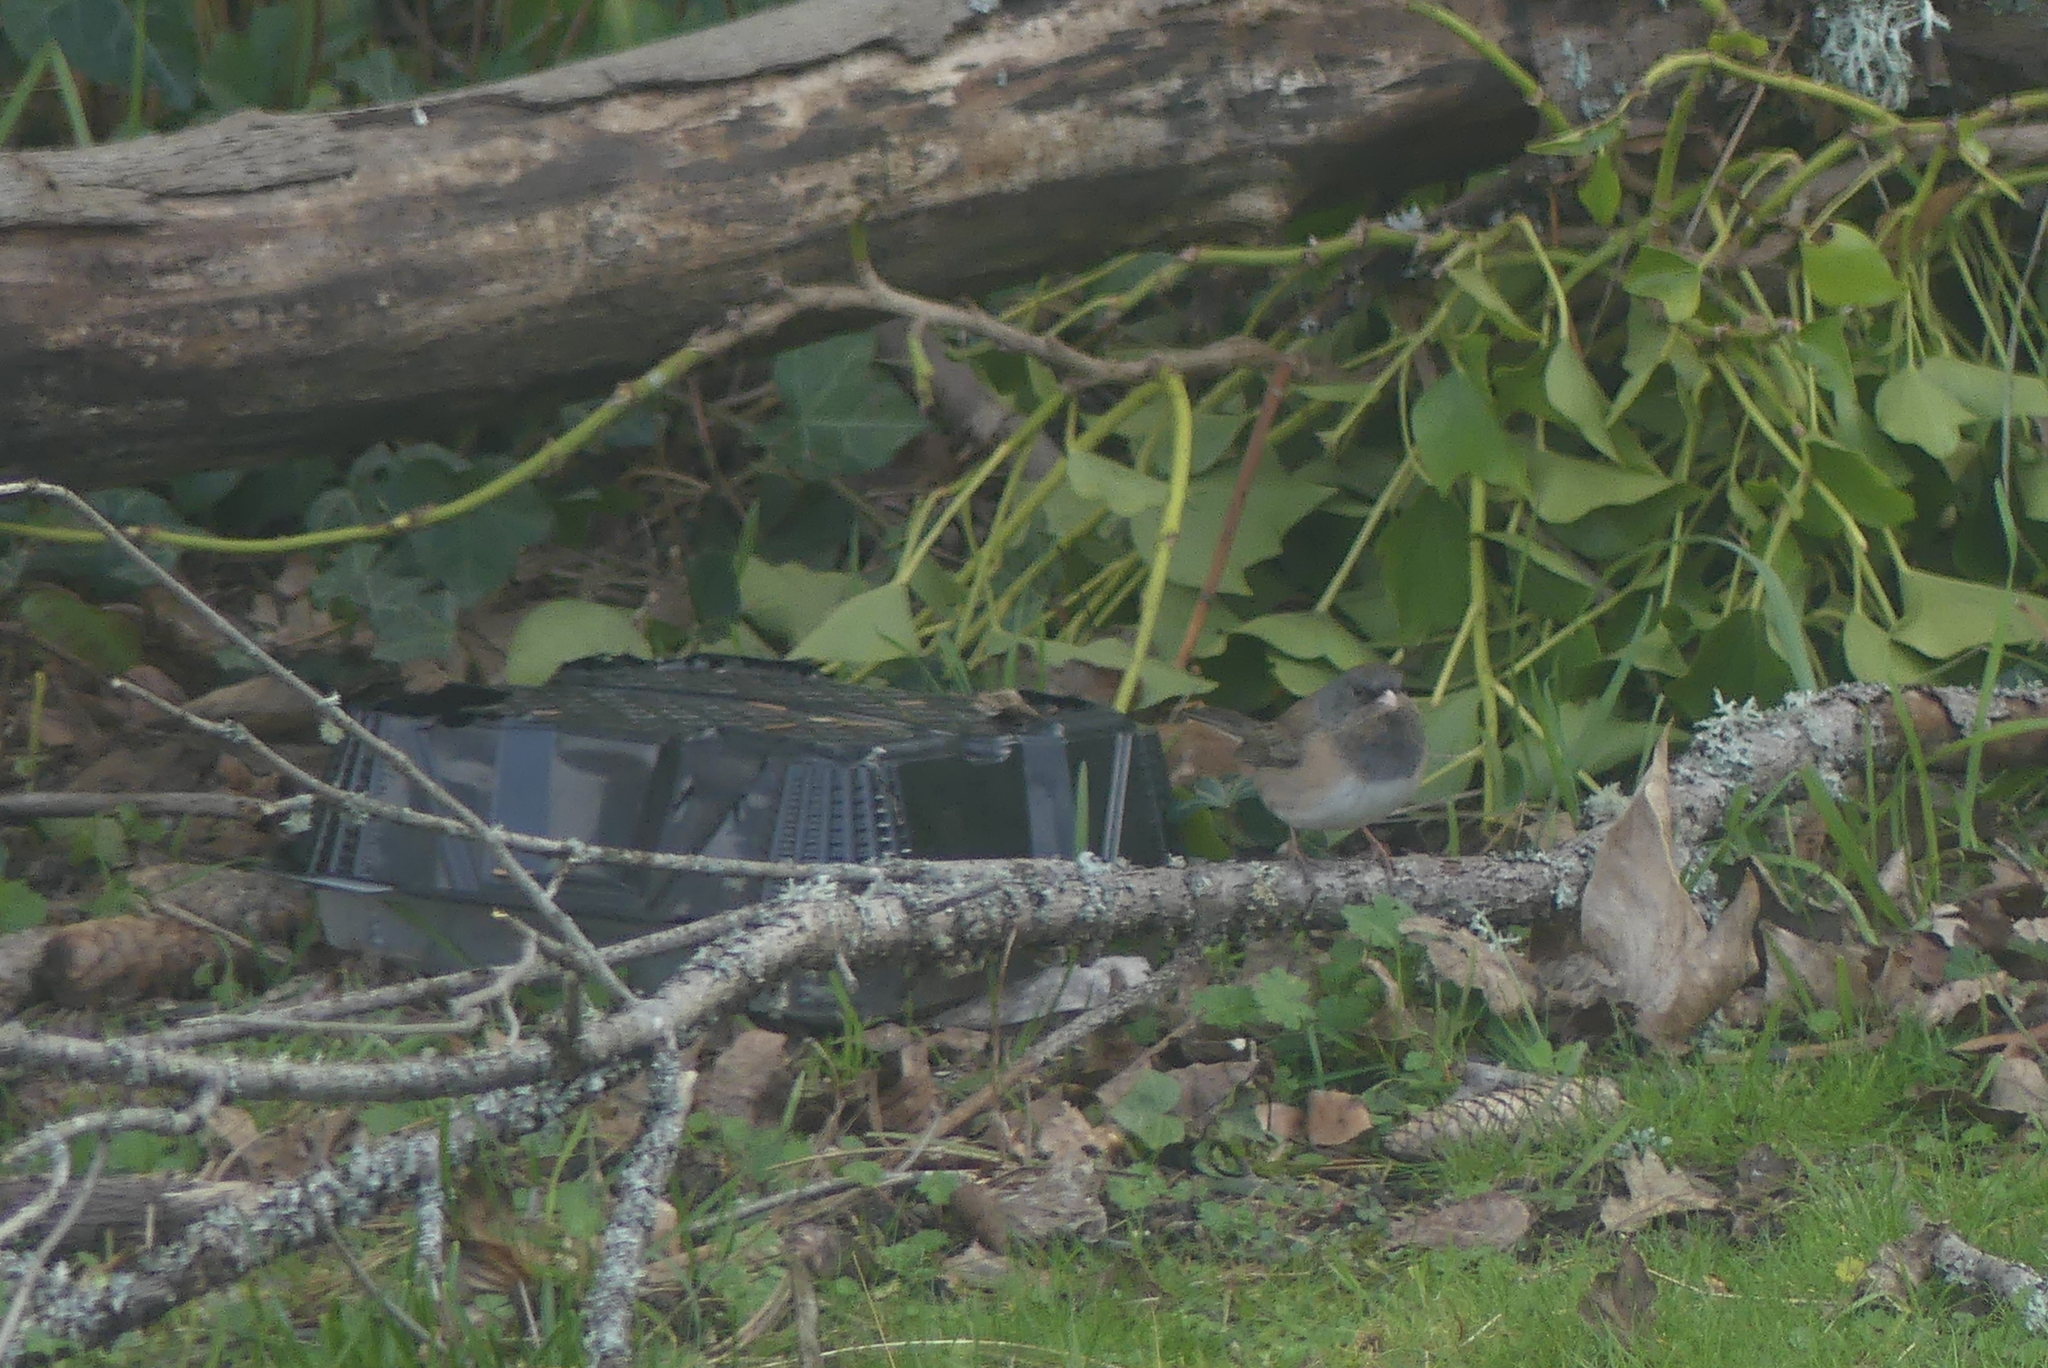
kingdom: Animalia
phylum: Chordata
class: Aves
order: Passeriformes
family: Passerellidae
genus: Junco
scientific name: Junco hyemalis
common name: Dark-eyed junco
